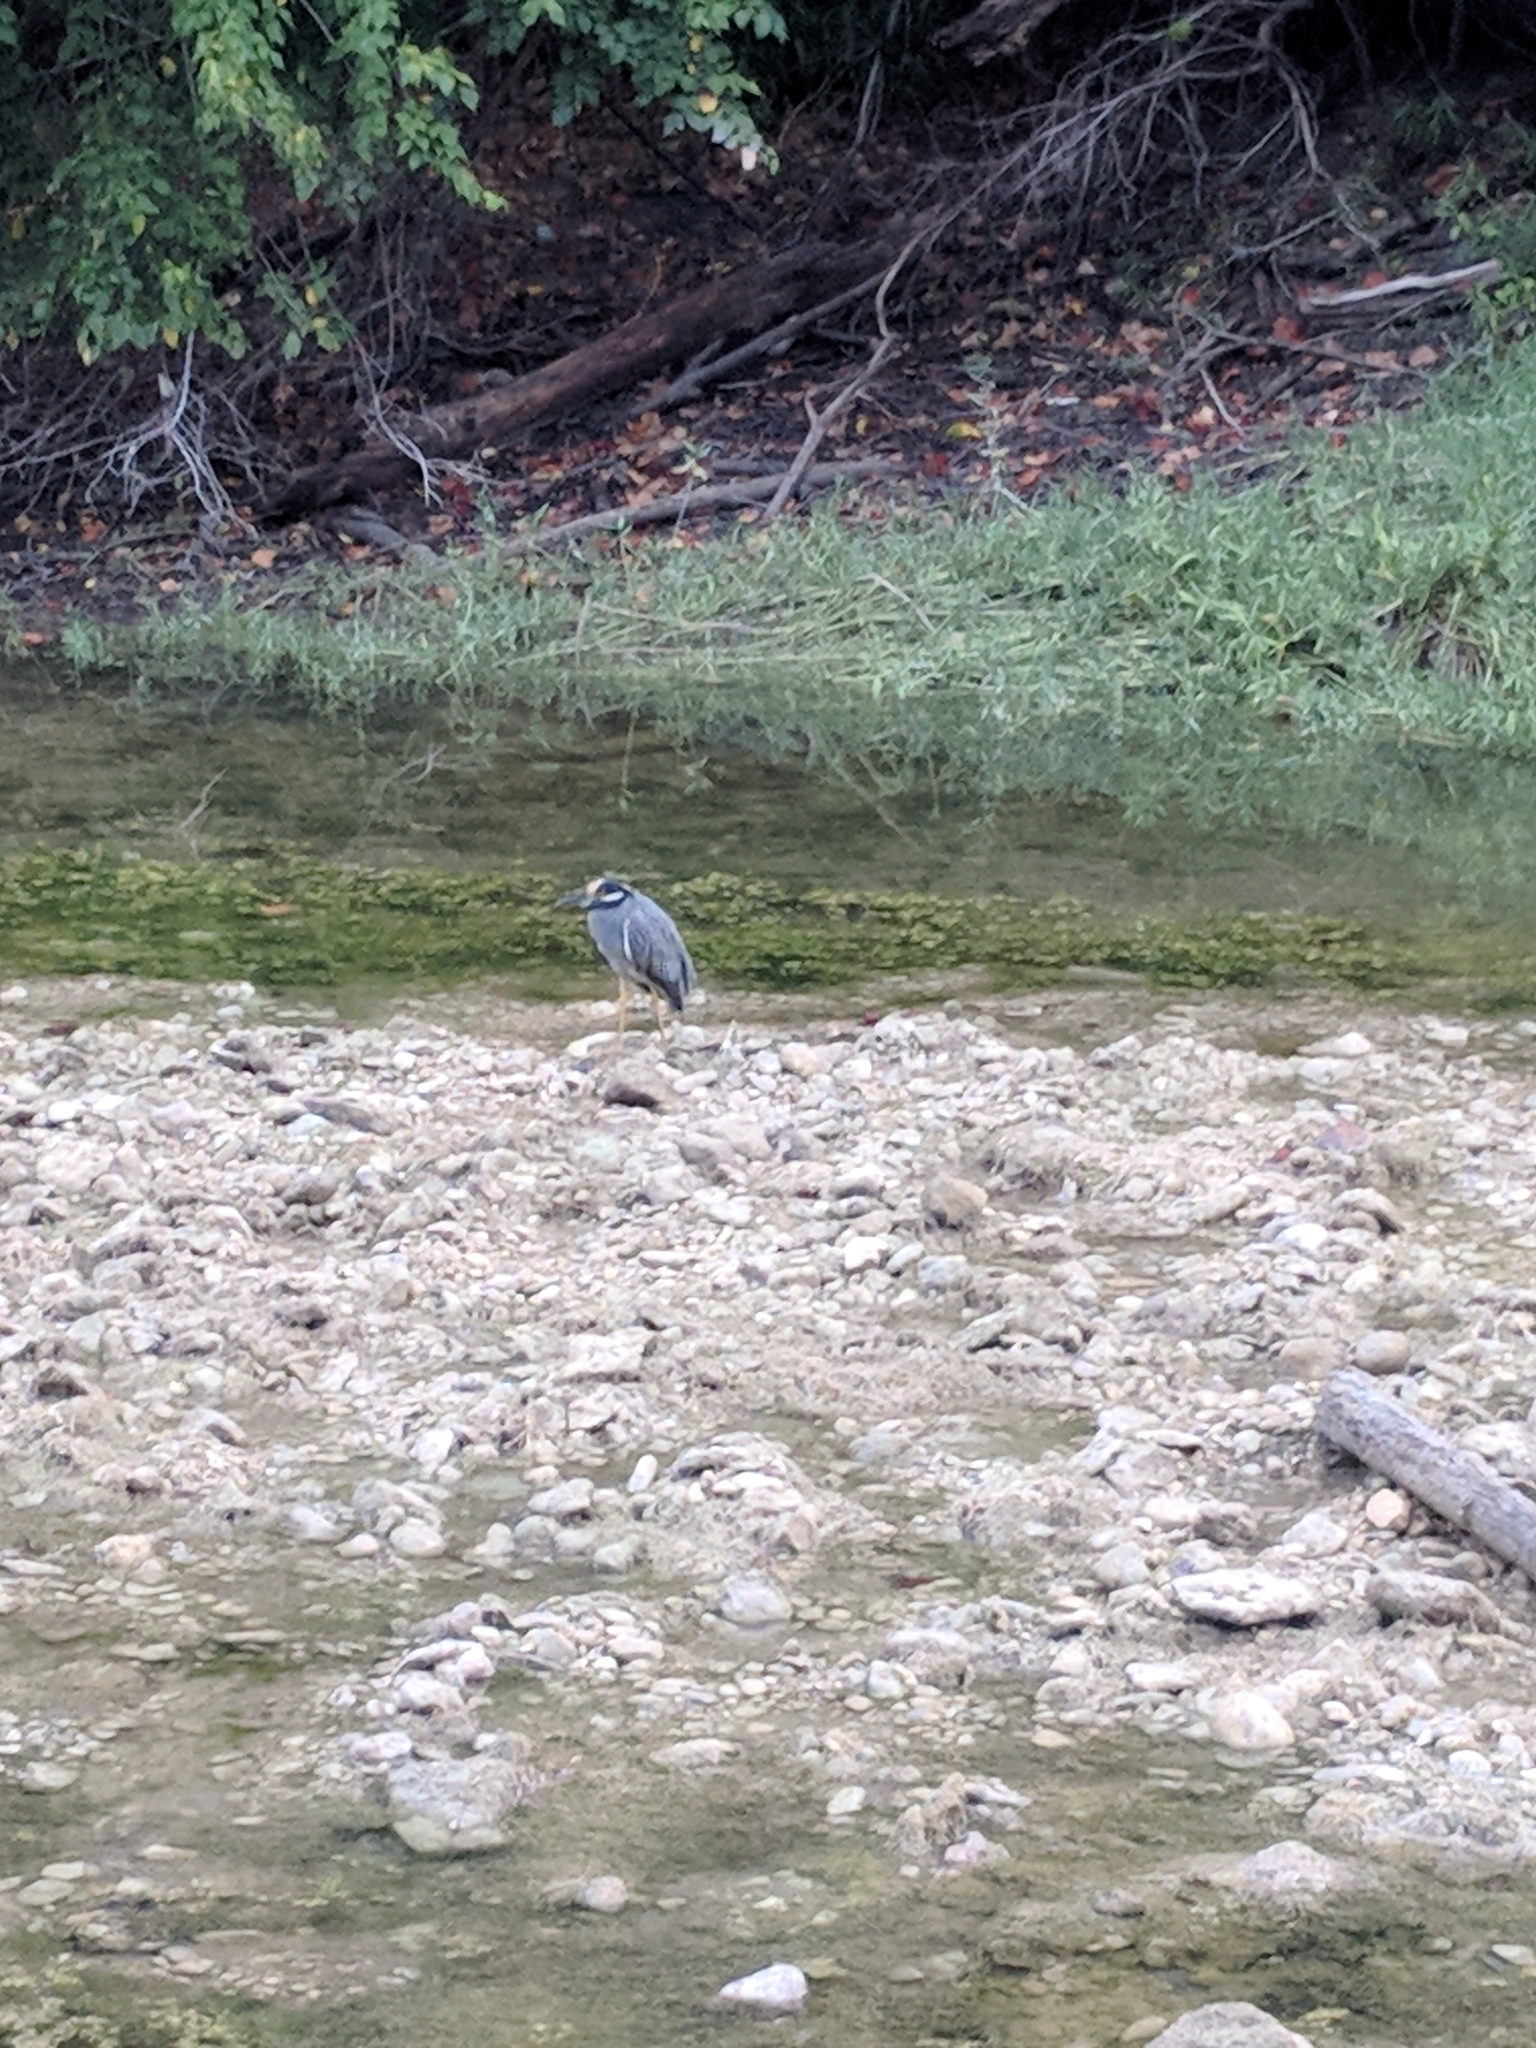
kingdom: Animalia
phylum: Chordata
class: Aves
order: Pelecaniformes
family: Ardeidae
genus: Nyctanassa
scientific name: Nyctanassa violacea
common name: Yellow-crowned night heron
